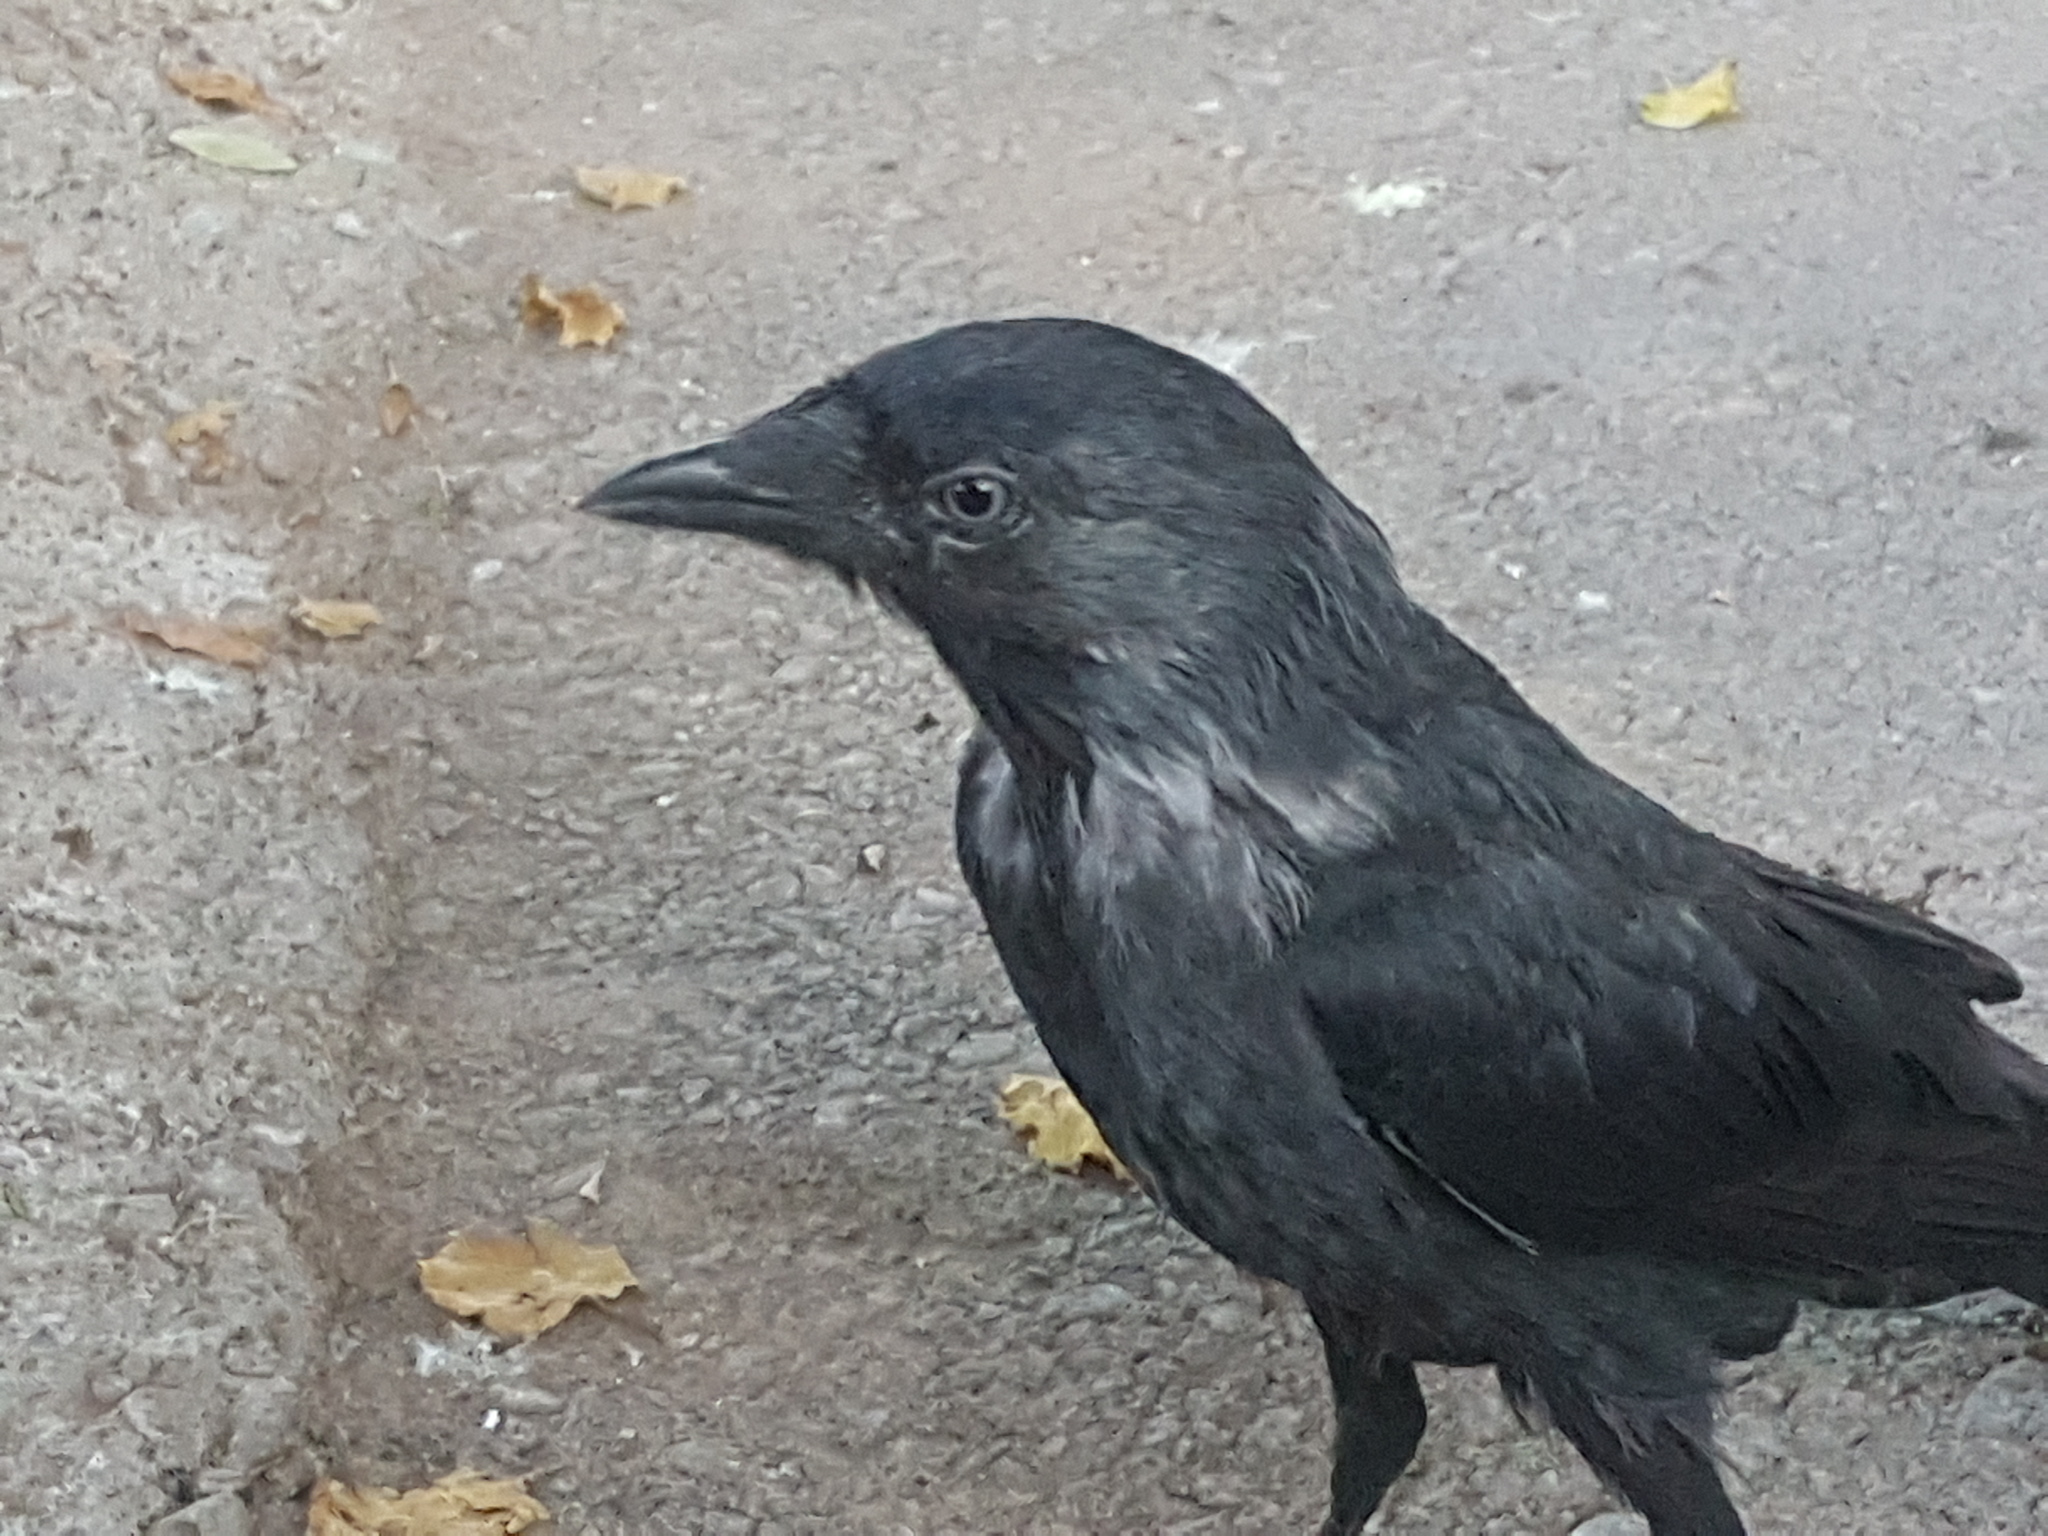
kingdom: Animalia
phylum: Chordata
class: Aves
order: Passeriformes
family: Corvidae
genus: Coloeus
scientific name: Coloeus monedula
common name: Western jackdaw
